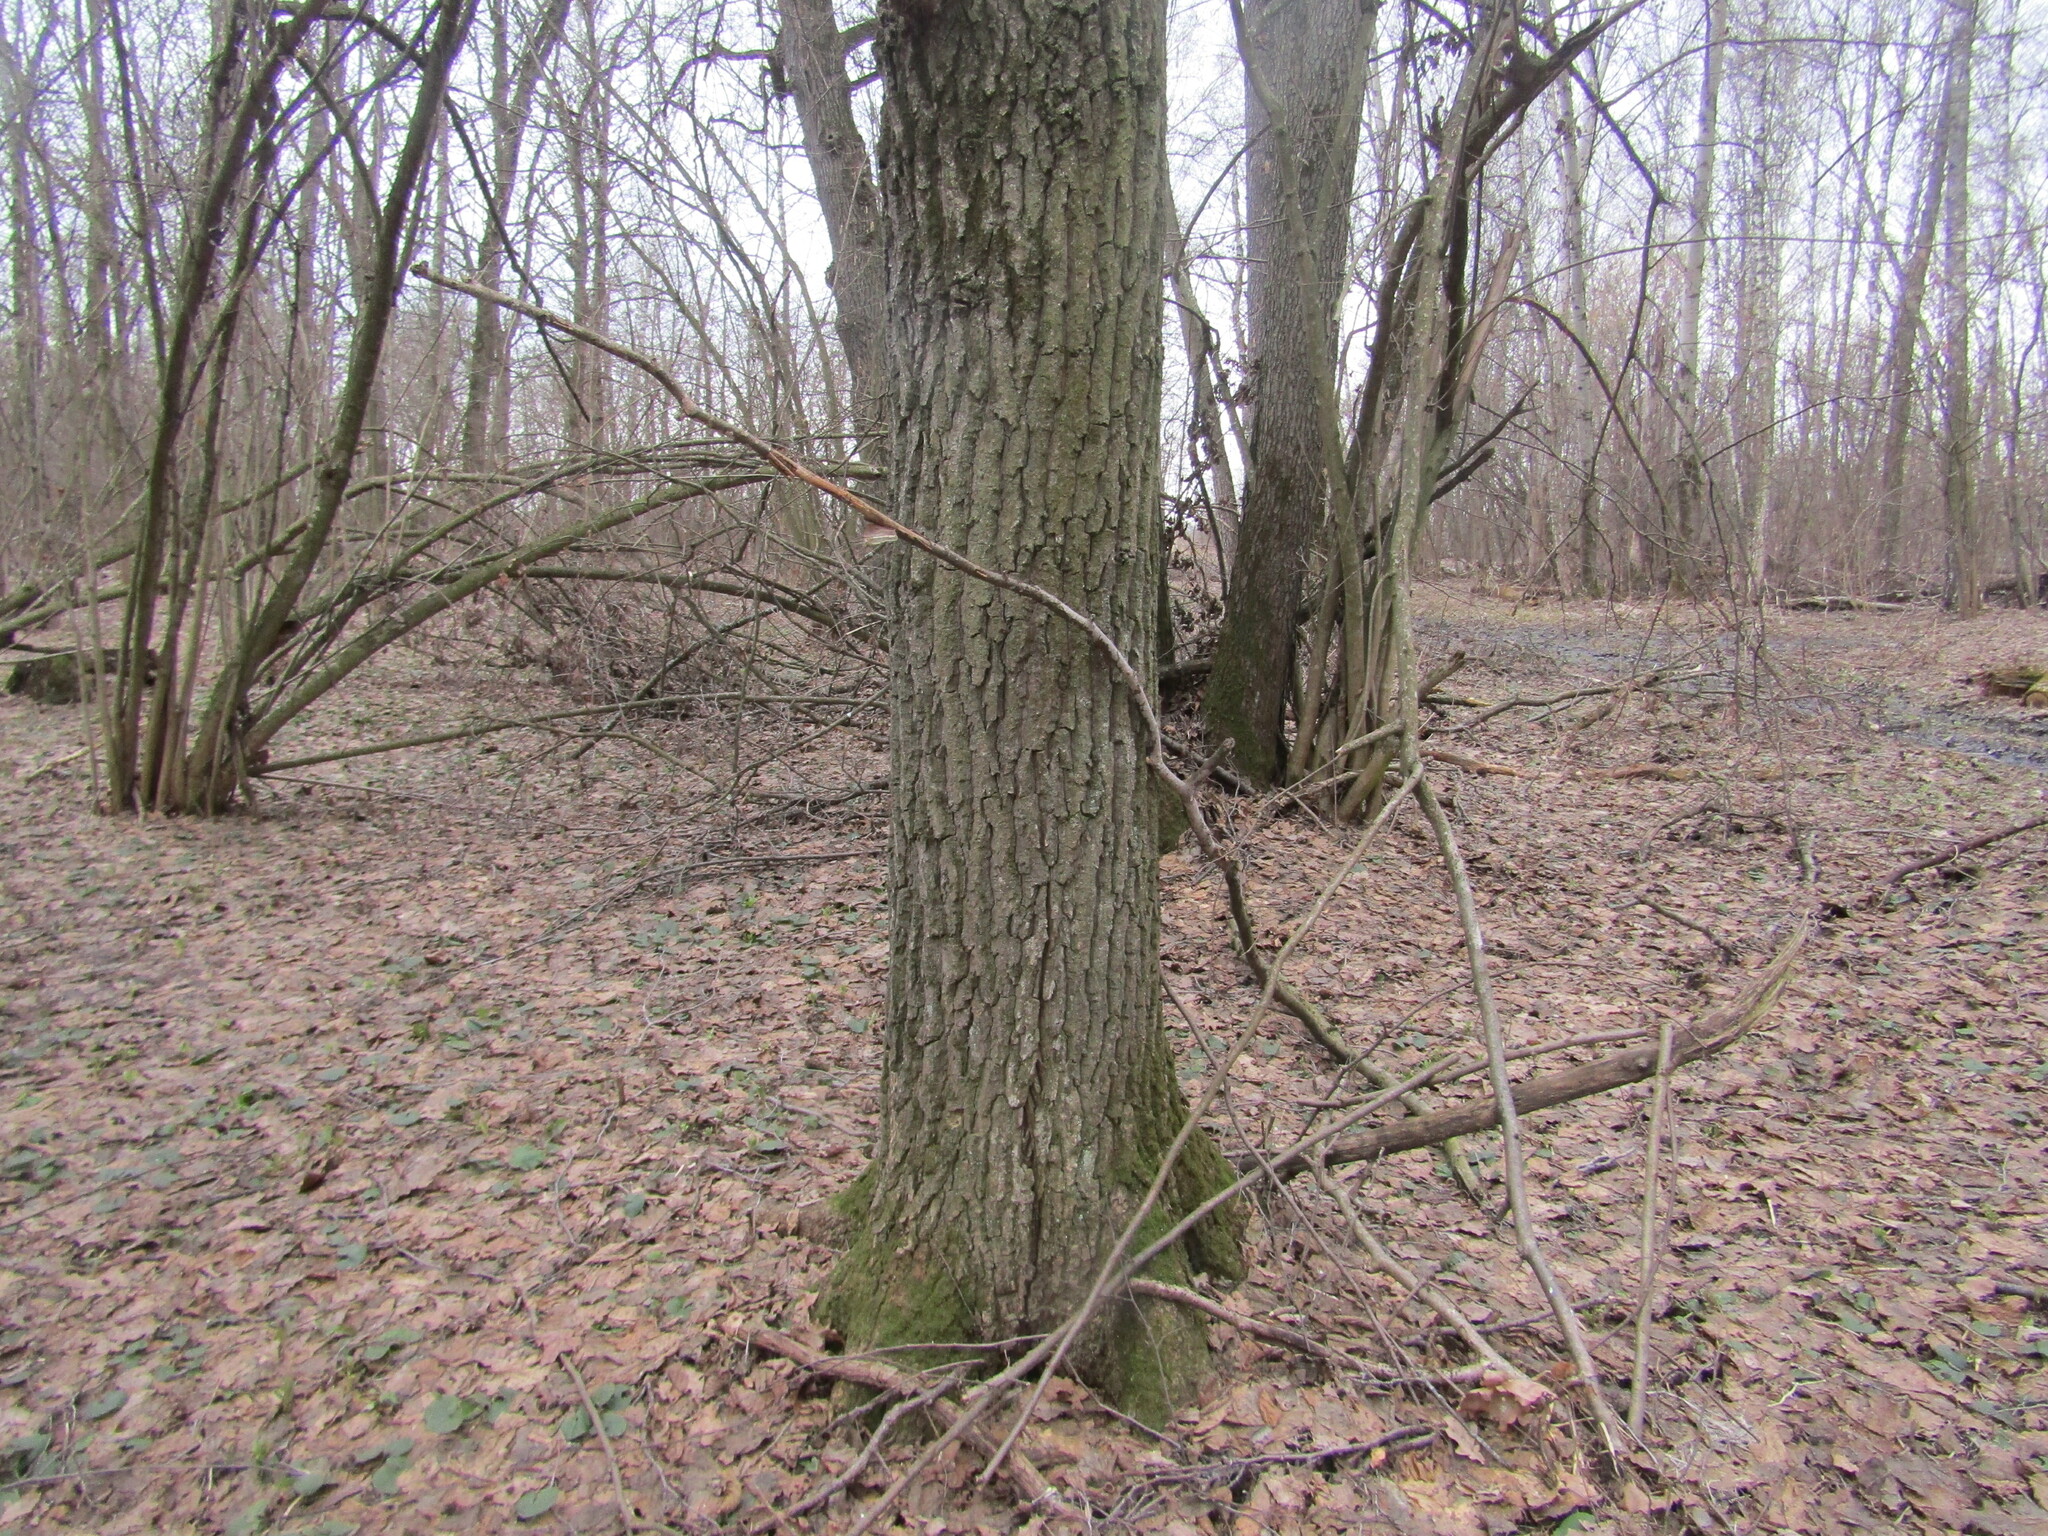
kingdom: Plantae
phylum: Tracheophyta
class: Magnoliopsida
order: Fagales
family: Fagaceae
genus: Quercus
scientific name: Quercus robur
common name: Pedunculate oak
